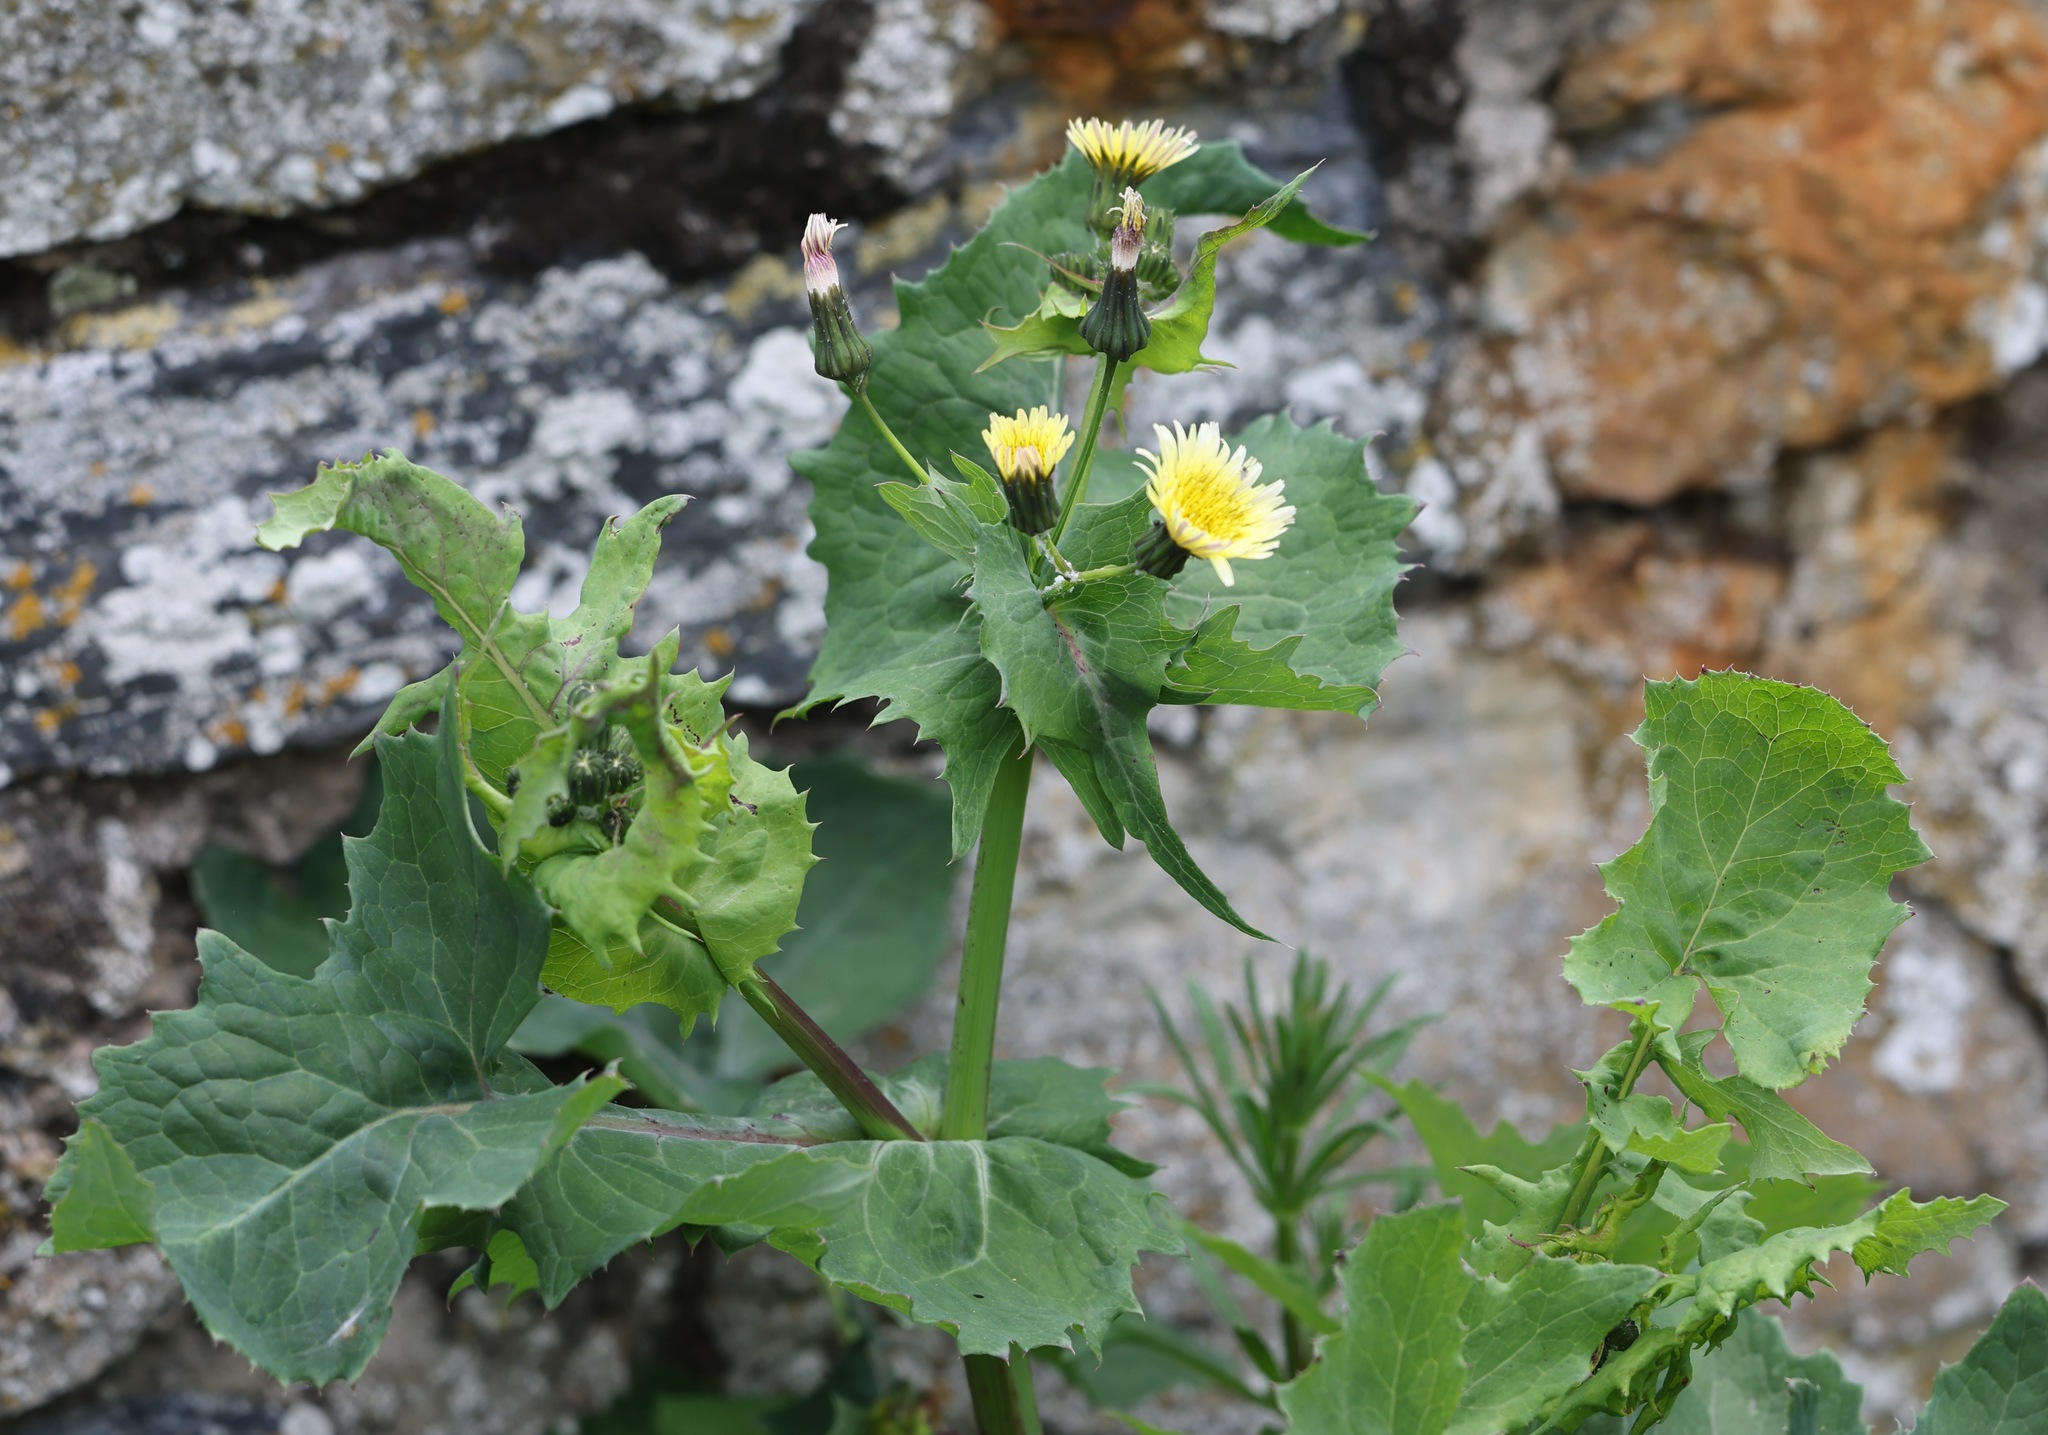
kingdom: Plantae
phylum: Tracheophyta
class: Magnoliopsida
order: Asterales
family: Asteraceae
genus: Sonchus
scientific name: Sonchus oleraceus
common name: Common sowthistle
